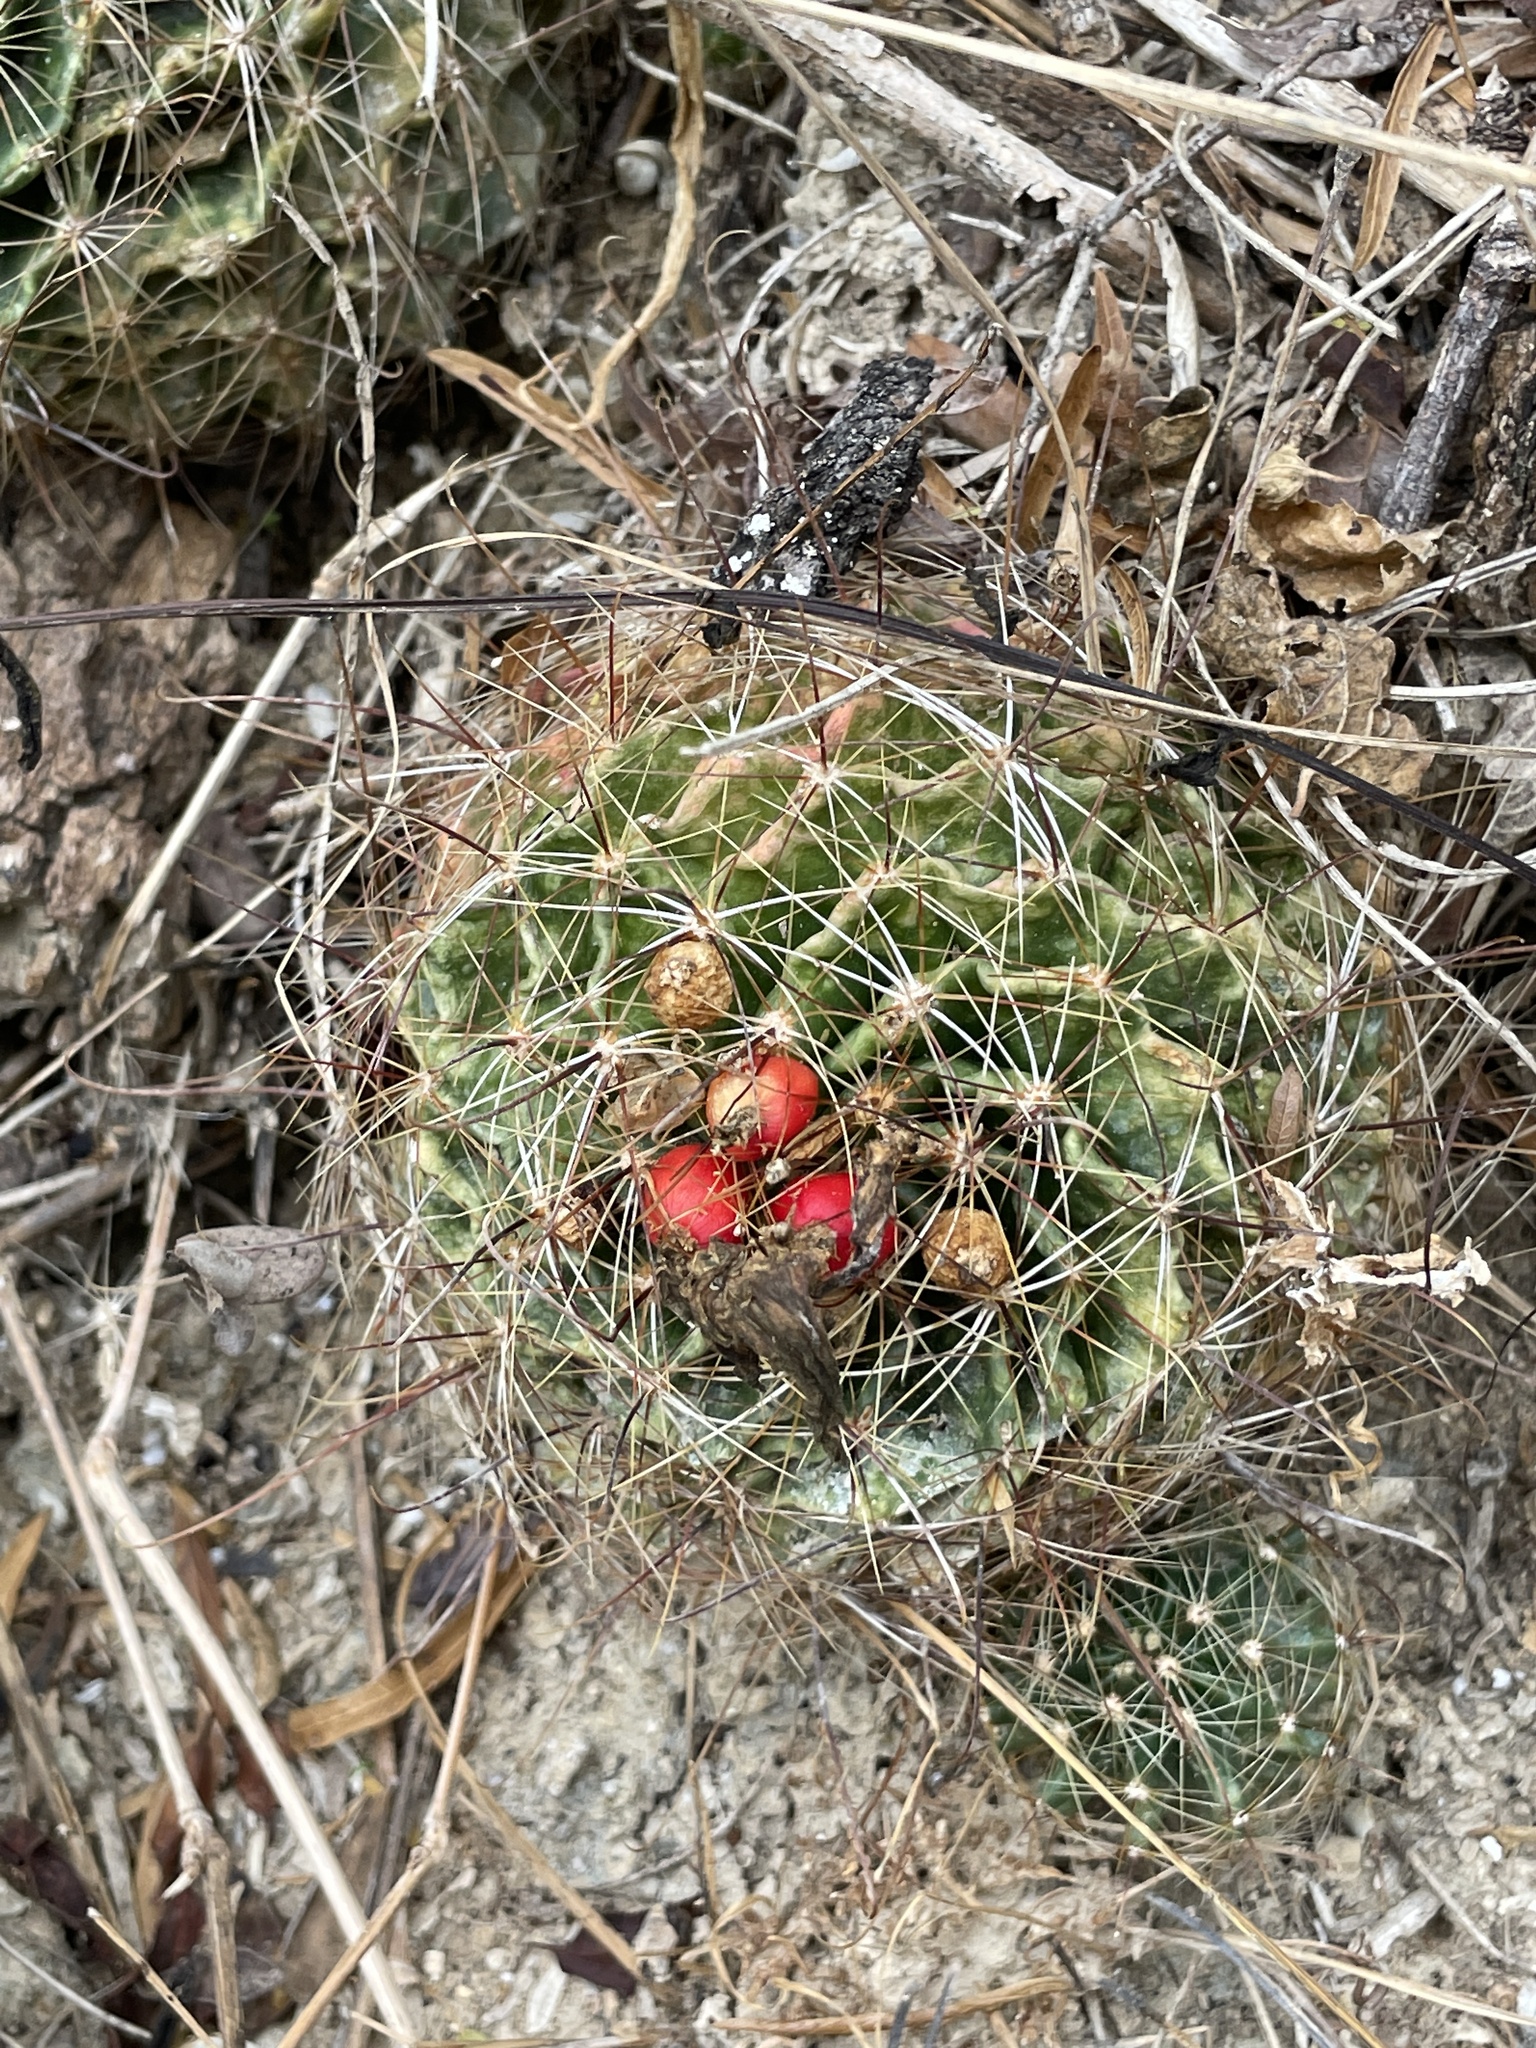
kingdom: Plantae
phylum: Tracheophyta
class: Magnoliopsida
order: Caryophyllales
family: Cactaceae
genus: Thelocactus
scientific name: Thelocactus setispinus
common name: Miniature barrel cactus
